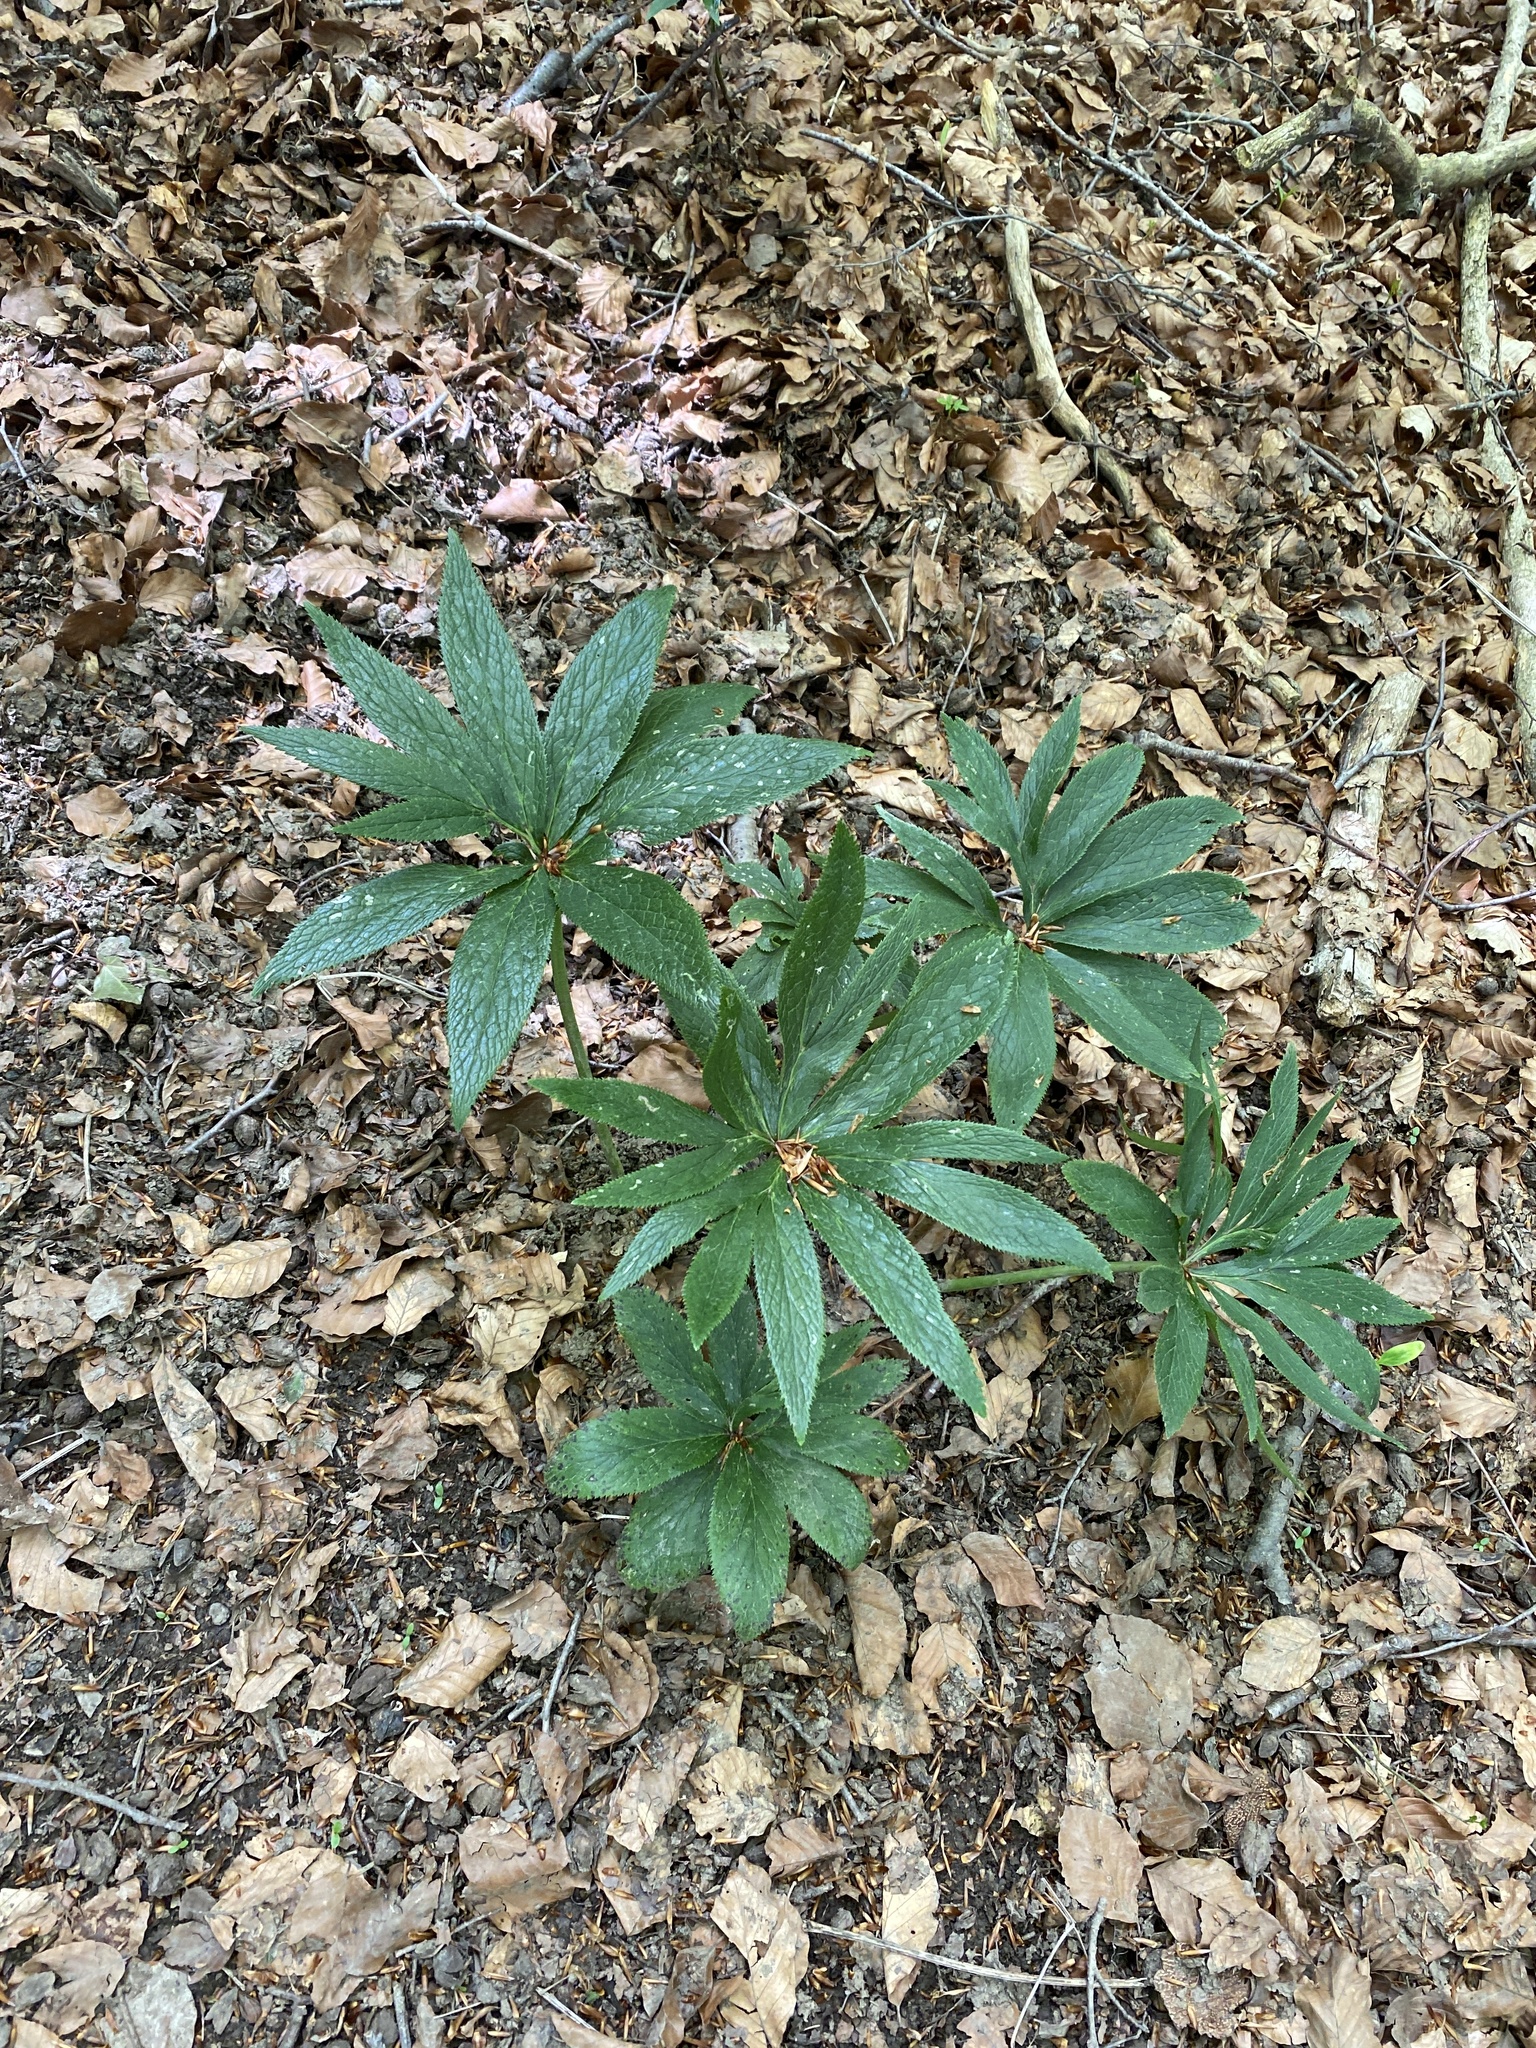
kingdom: Plantae
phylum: Tracheophyta
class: Magnoliopsida
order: Ranunculales
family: Ranunculaceae
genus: Helleborus
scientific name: Helleborus viridis
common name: Green hellebore
